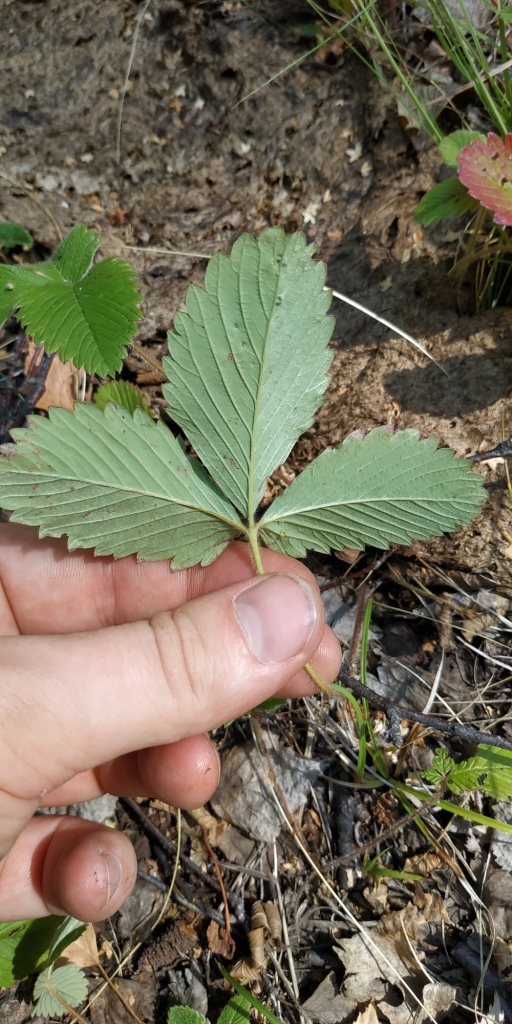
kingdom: Plantae
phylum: Tracheophyta
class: Magnoliopsida
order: Rosales
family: Rosaceae
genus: Fragaria
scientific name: Fragaria viridis
